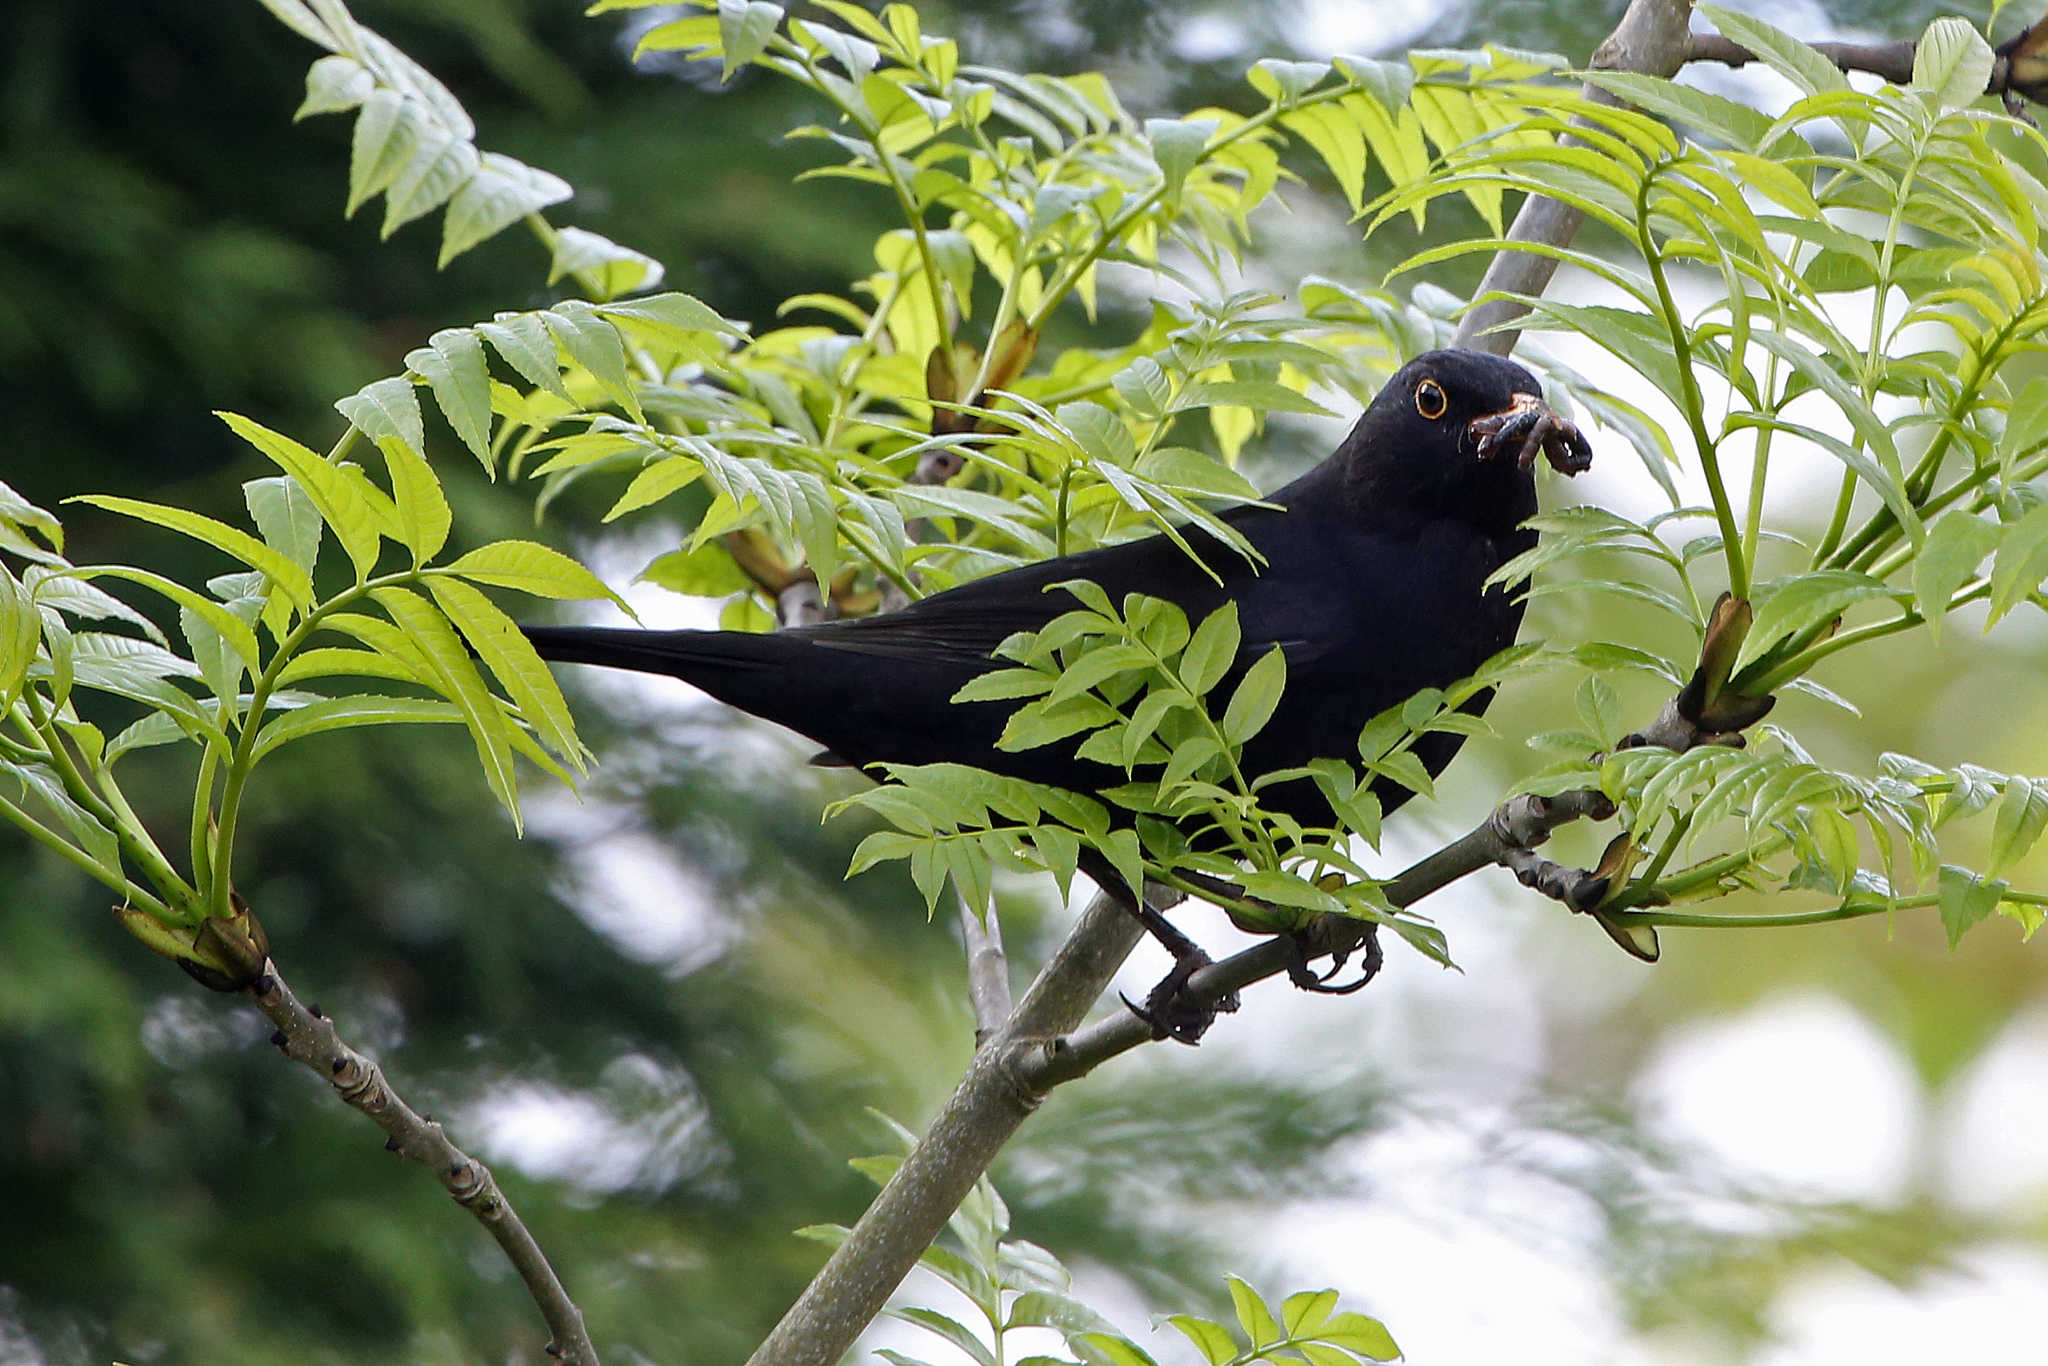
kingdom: Animalia
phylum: Chordata
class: Aves
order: Passeriformes
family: Turdidae
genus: Turdus
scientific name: Turdus merula
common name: Common blackbird
